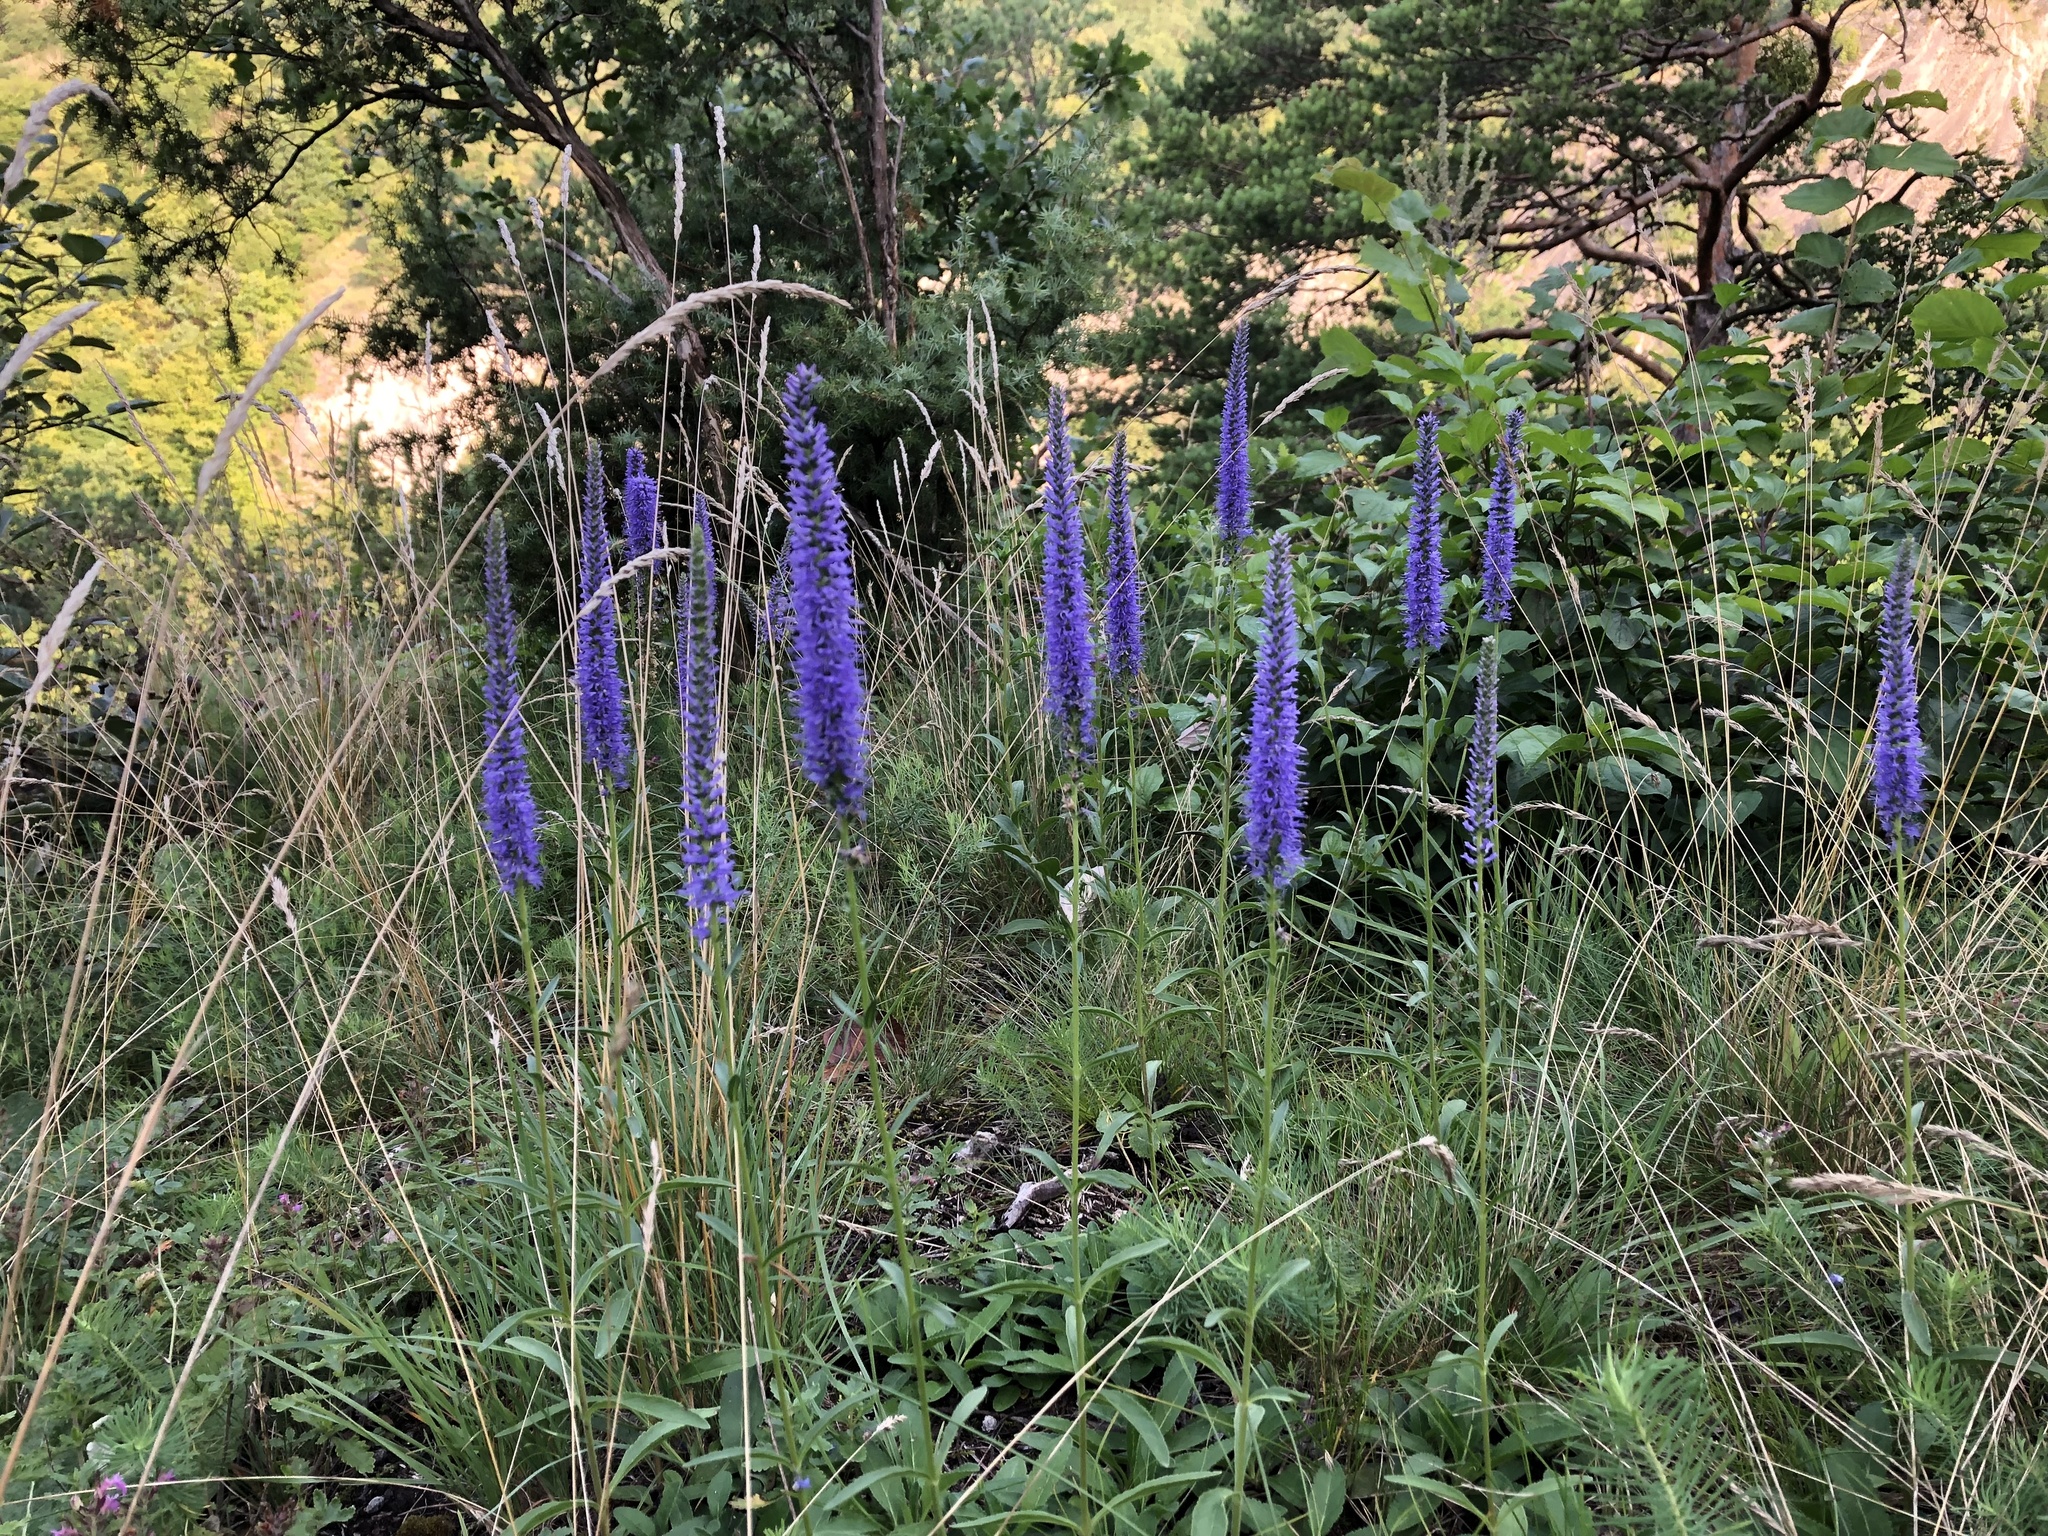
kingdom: Plantae
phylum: Tracheophyta
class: Magnoliopsida
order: Lamiales
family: Plantaginaceae
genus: Veronica
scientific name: Veronica spicata
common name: Spiked speedwell
